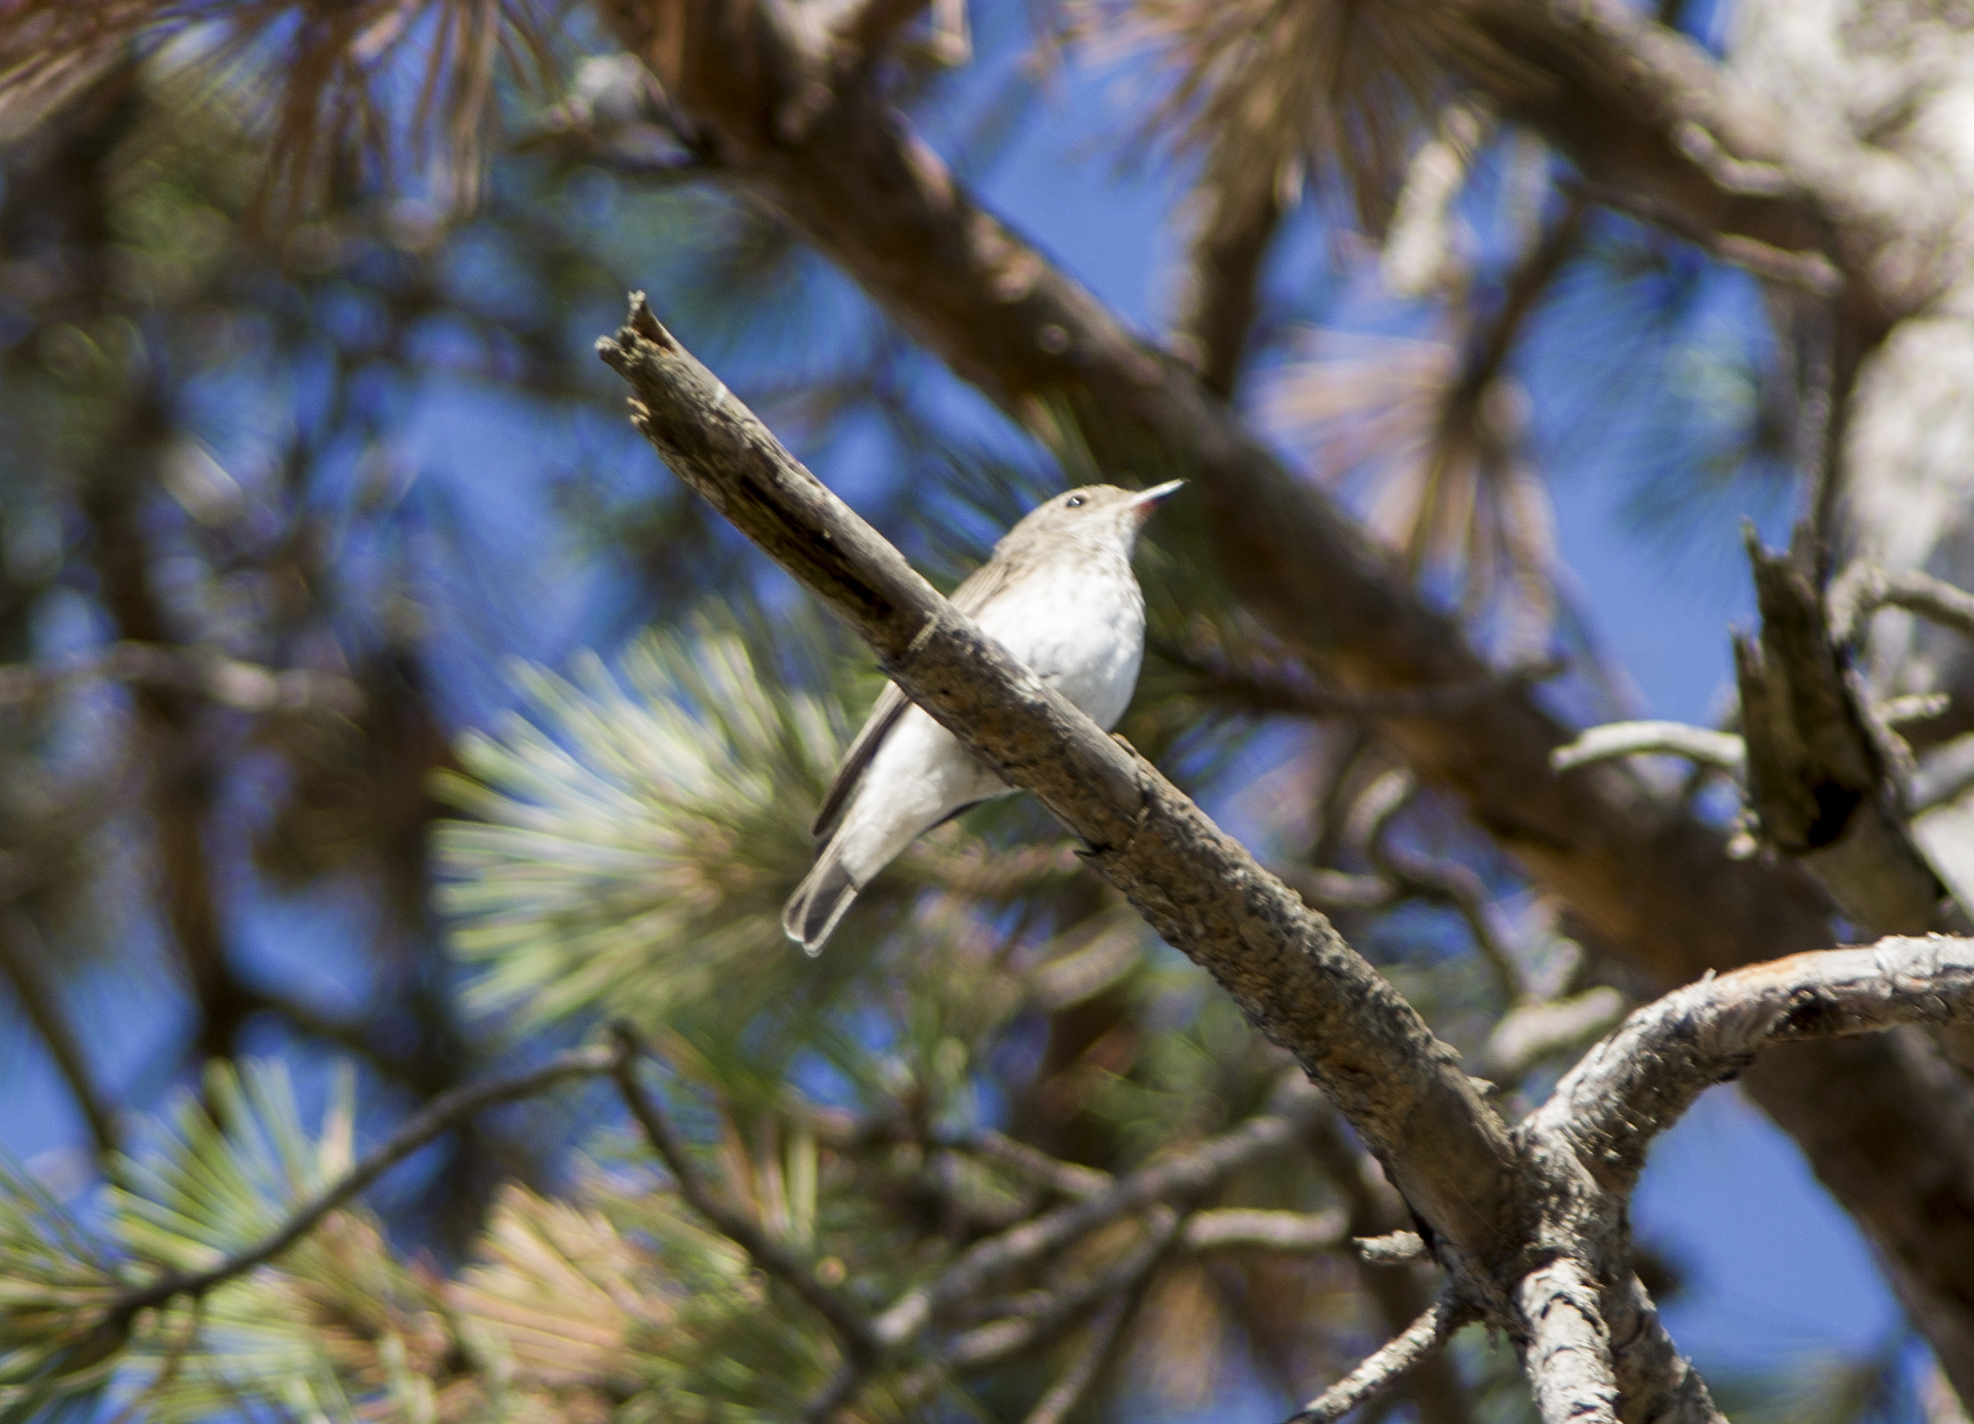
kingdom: Animalia
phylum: Chordata
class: Aves
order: Passeriformes
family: Muscicapidae
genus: Muscicapa
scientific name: Muscicapa striata
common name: Spotted flycatcher
